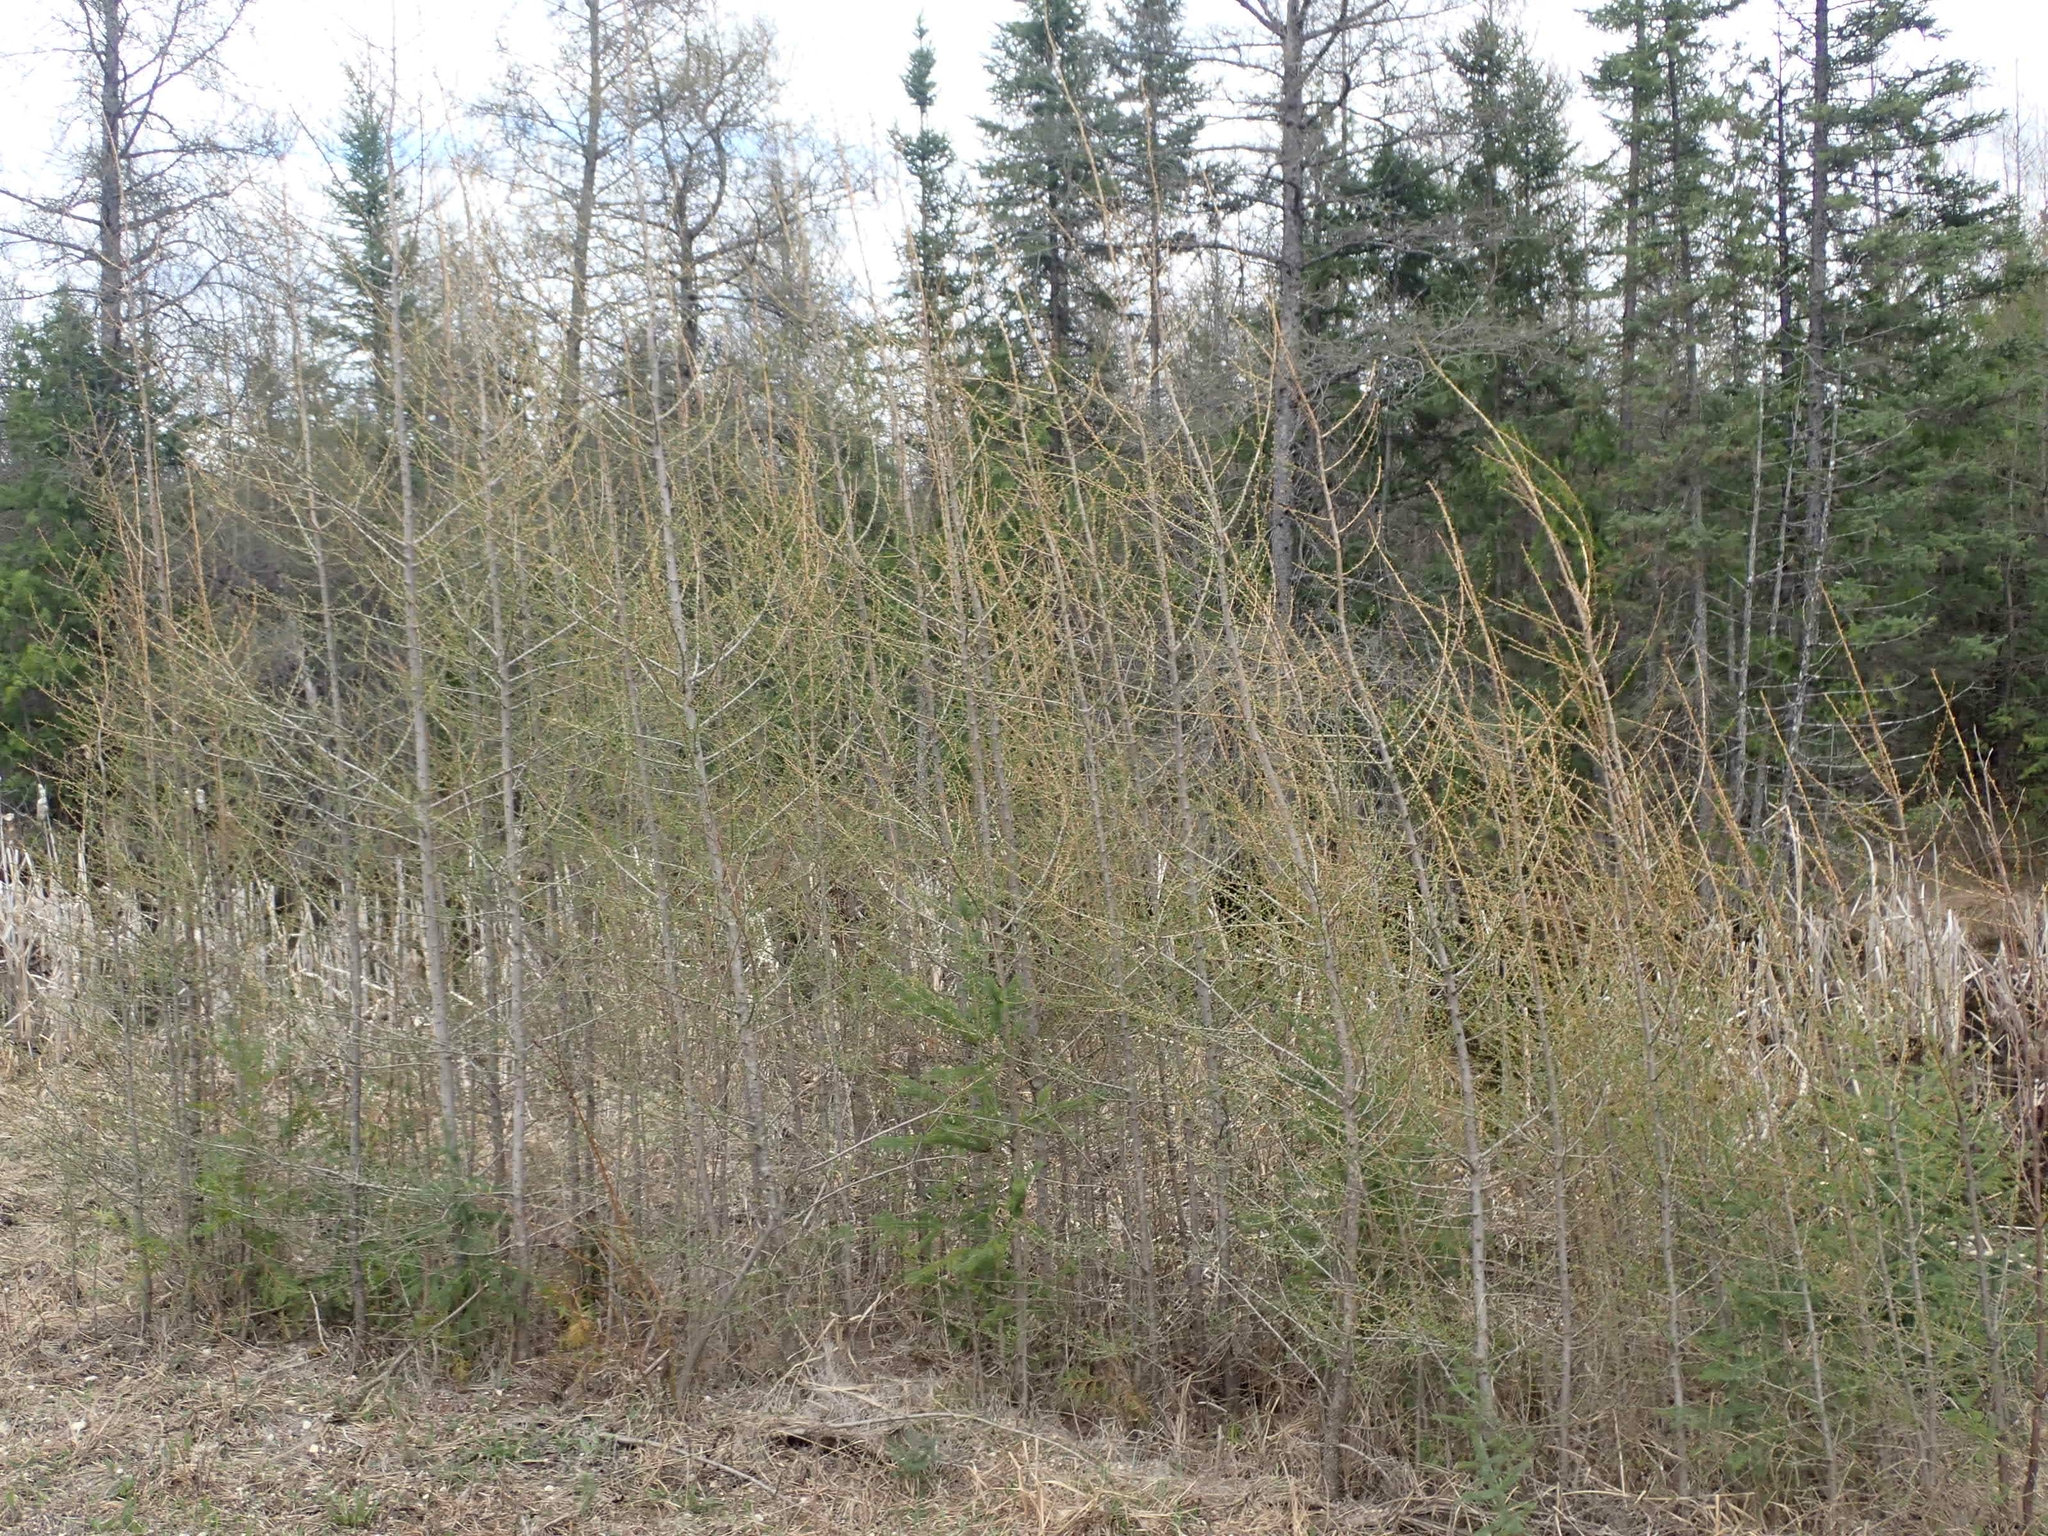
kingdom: Plantae
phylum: Tracheophyta
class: Pinopsida
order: Pinales
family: Pinaceae
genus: Larix
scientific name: Larix laricina
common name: American larch
